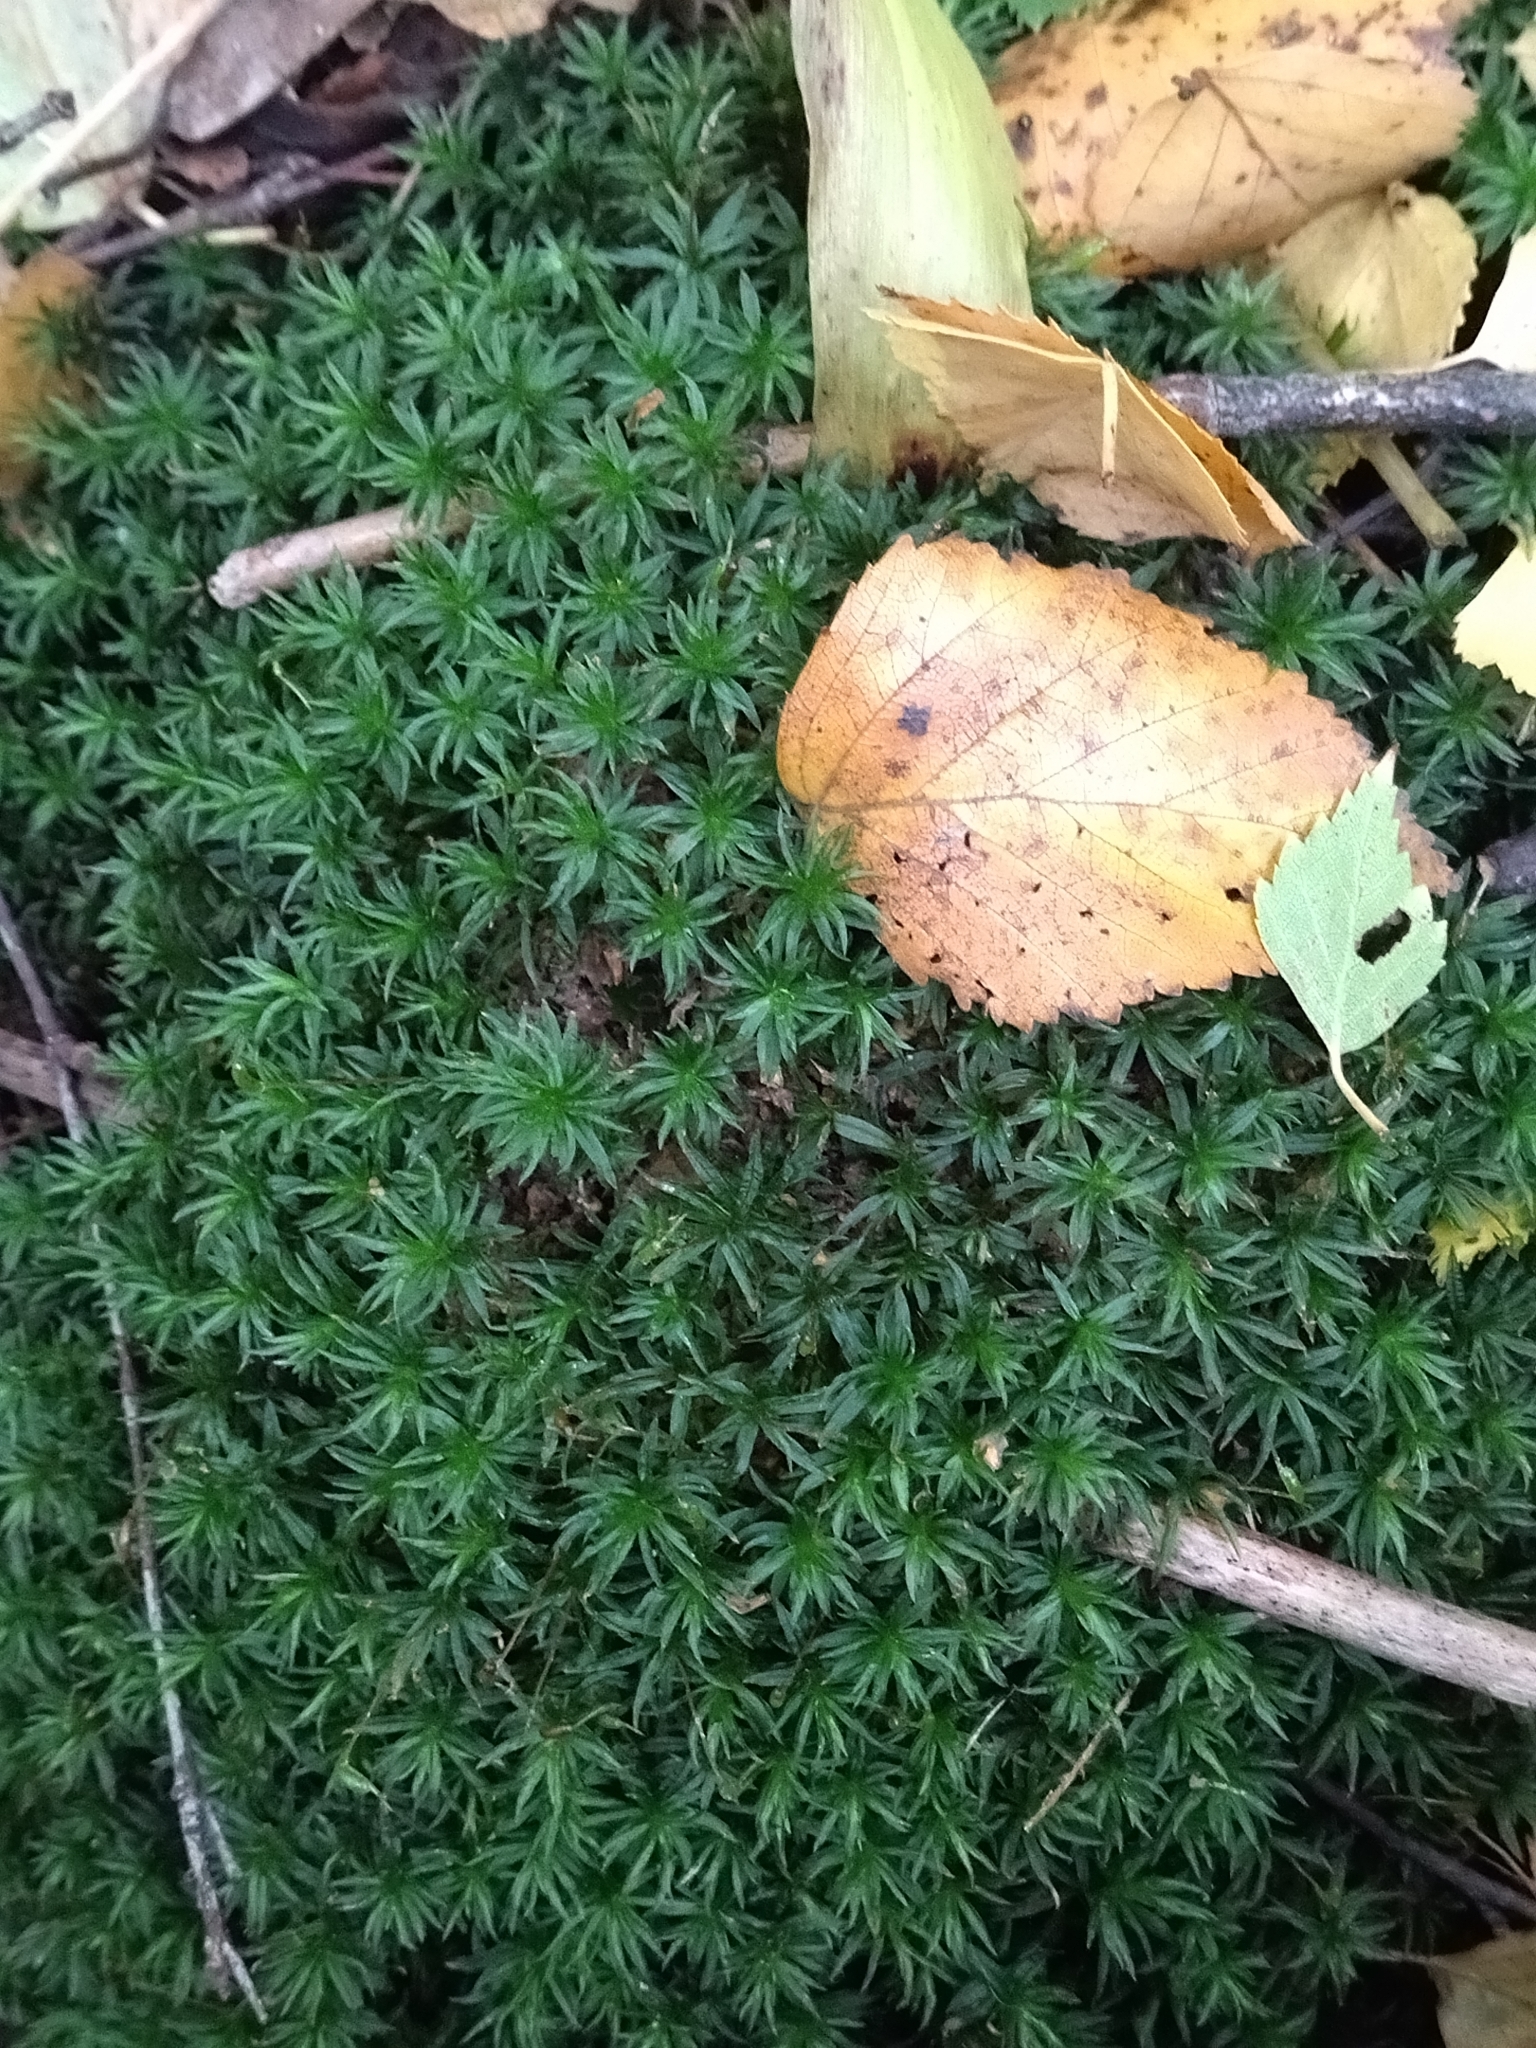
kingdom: Plantae
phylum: Bryophyta
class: Polytrichopsida
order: Polytrichales
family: Polytrichaceae
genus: Atrichum
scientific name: Atrichum undulatum
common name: Common smoothcap
